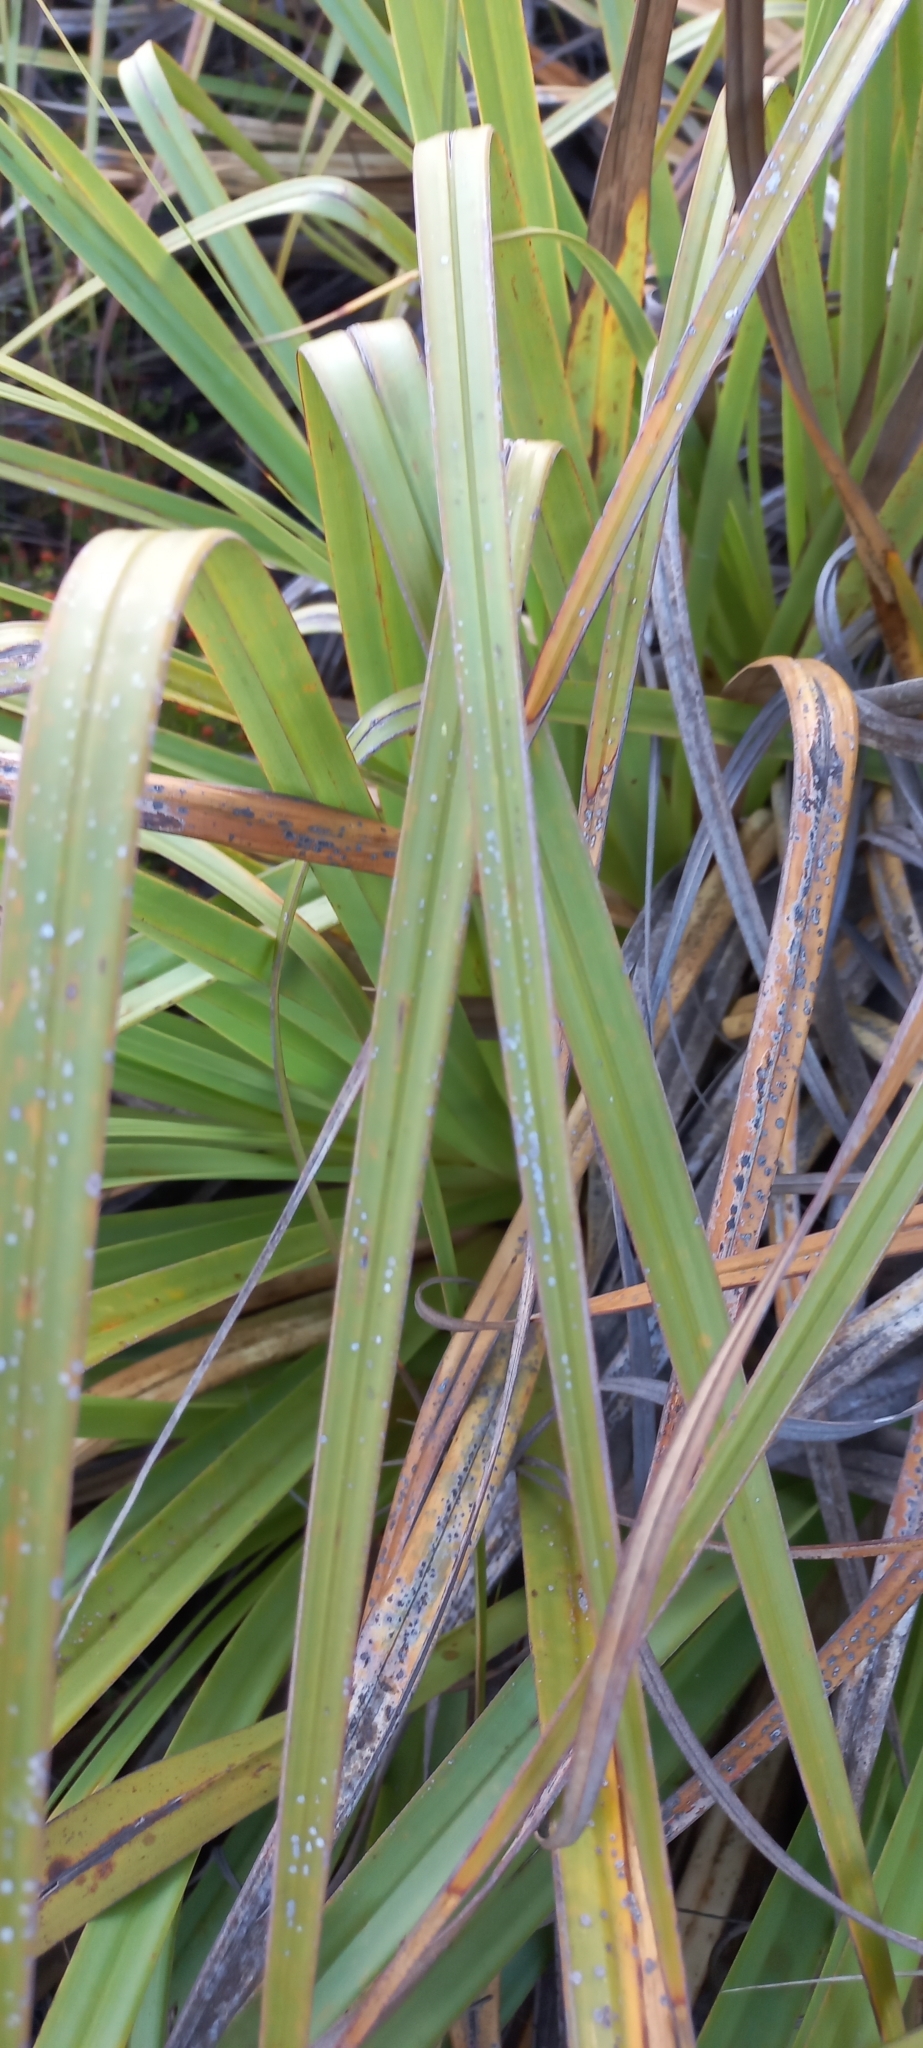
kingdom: Plantae
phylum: Tracheophyta
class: Liliopsida
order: Poales
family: Thurniaceae
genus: Prionium
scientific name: Prionium serratum
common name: Palmiet
